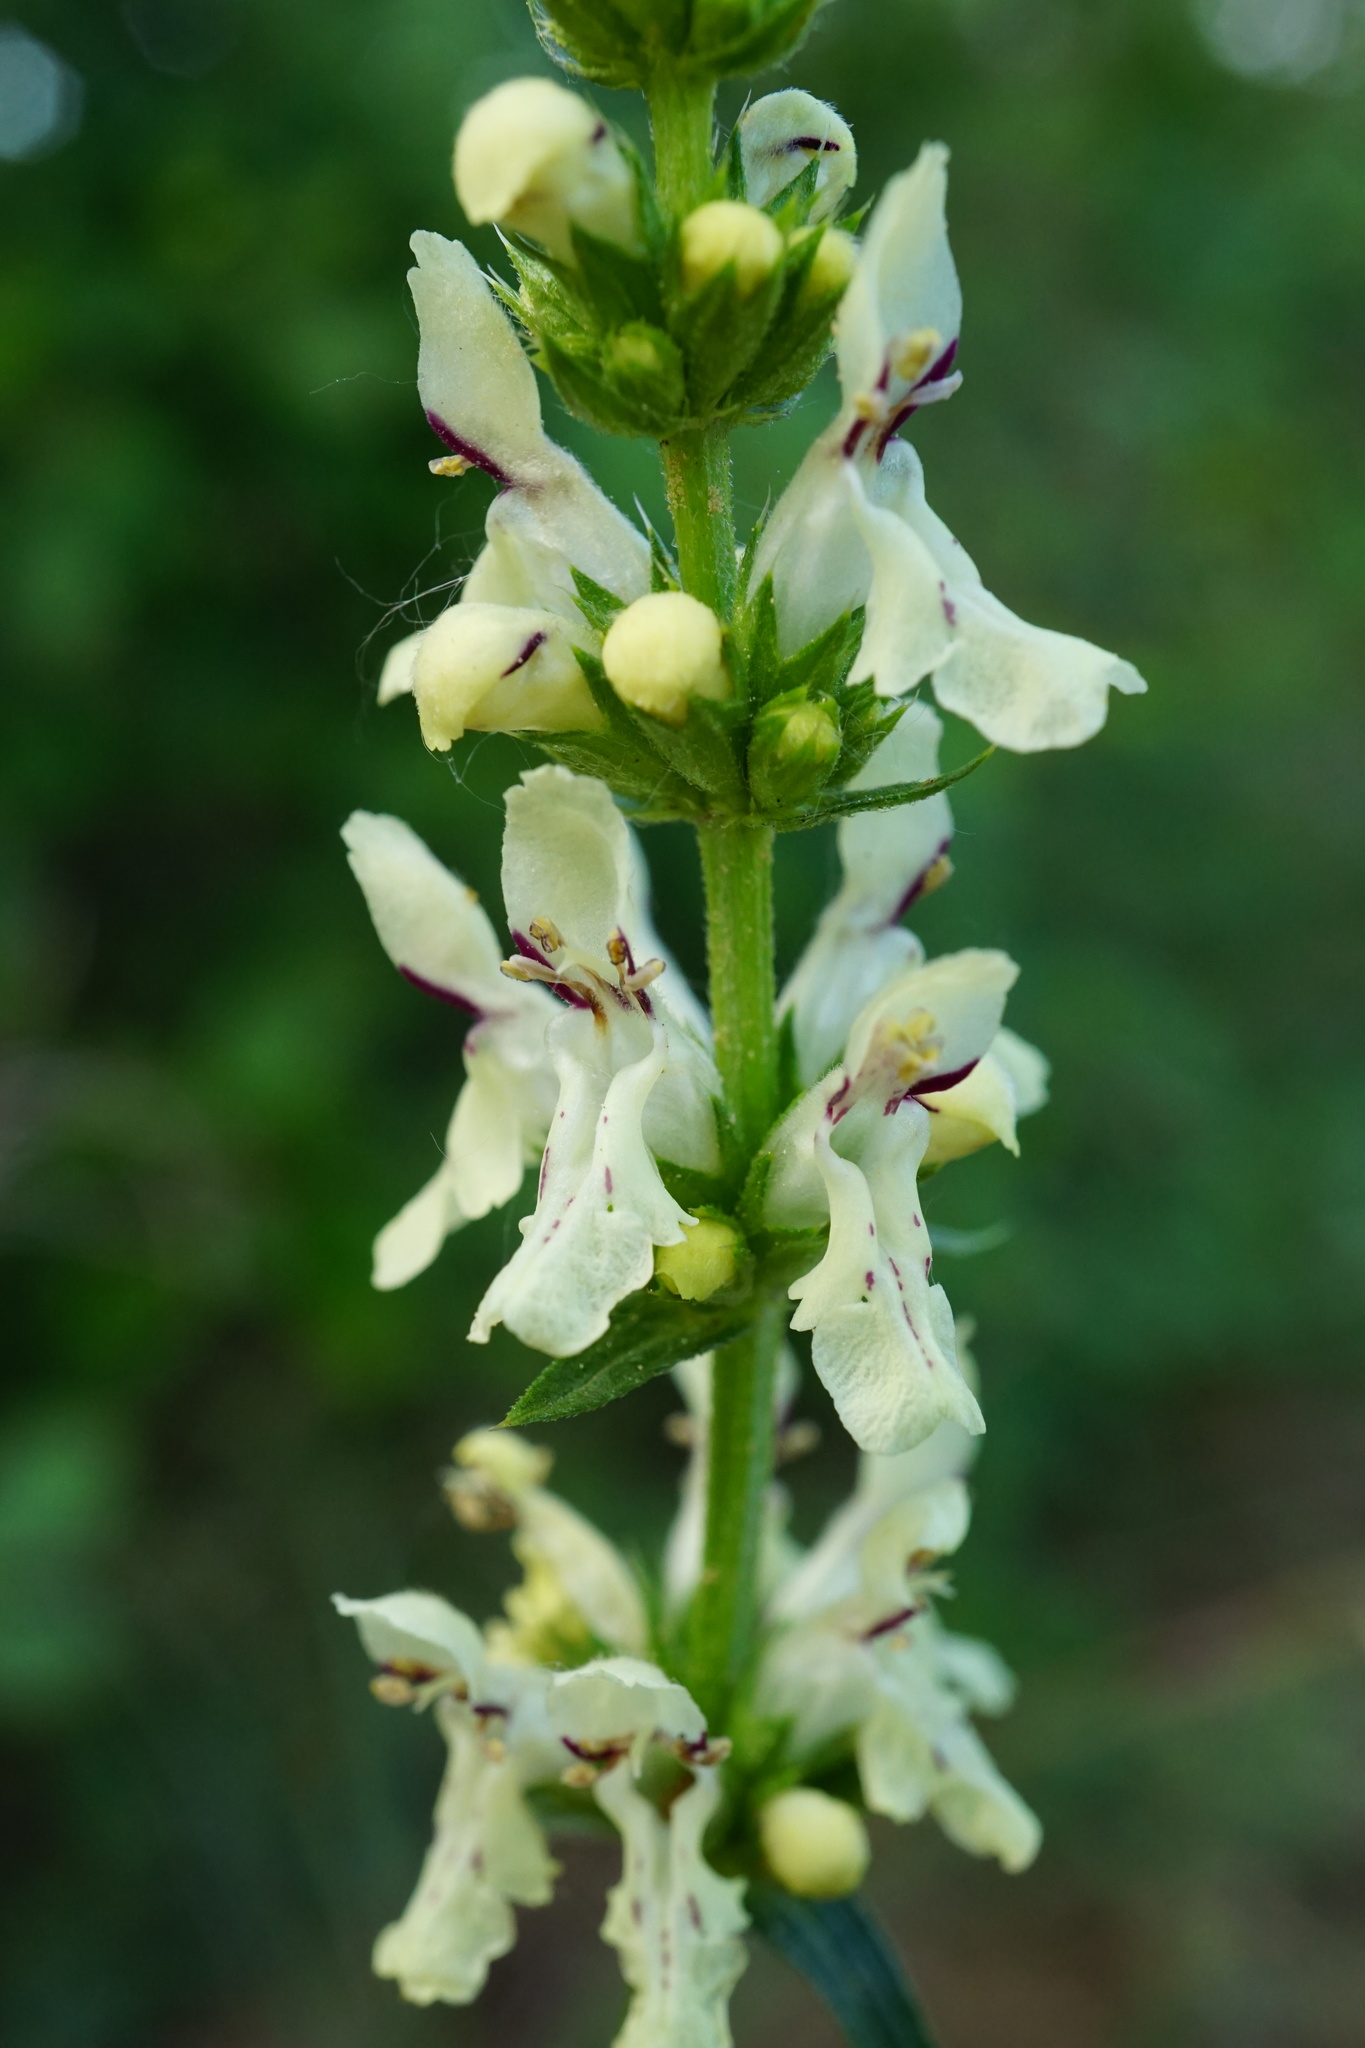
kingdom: Plantae
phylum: Tracheophyta
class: Magnoliopsida
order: Lamiales
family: Lamiaceae
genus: Stachys
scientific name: Stachys recta
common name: Perennial yellow-woundwort
